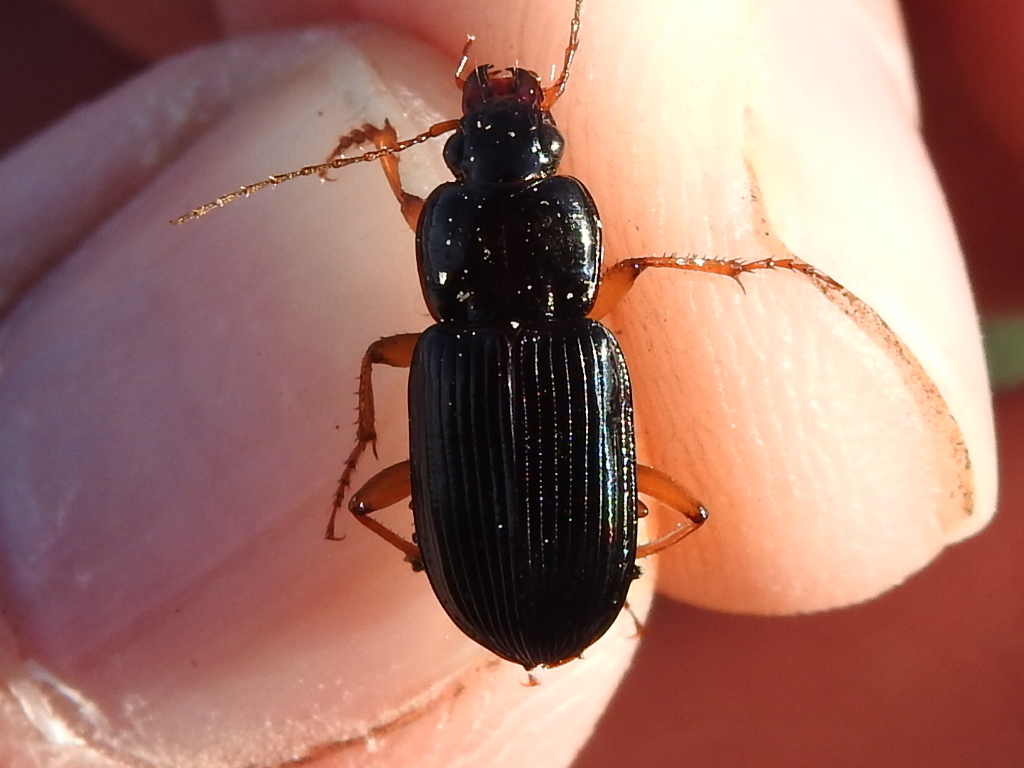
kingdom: Animalia
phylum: Arthropoda
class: Insecta
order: Coleoptera
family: Carabidae
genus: Anisodactylus
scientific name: Anisodactylus verticalis
